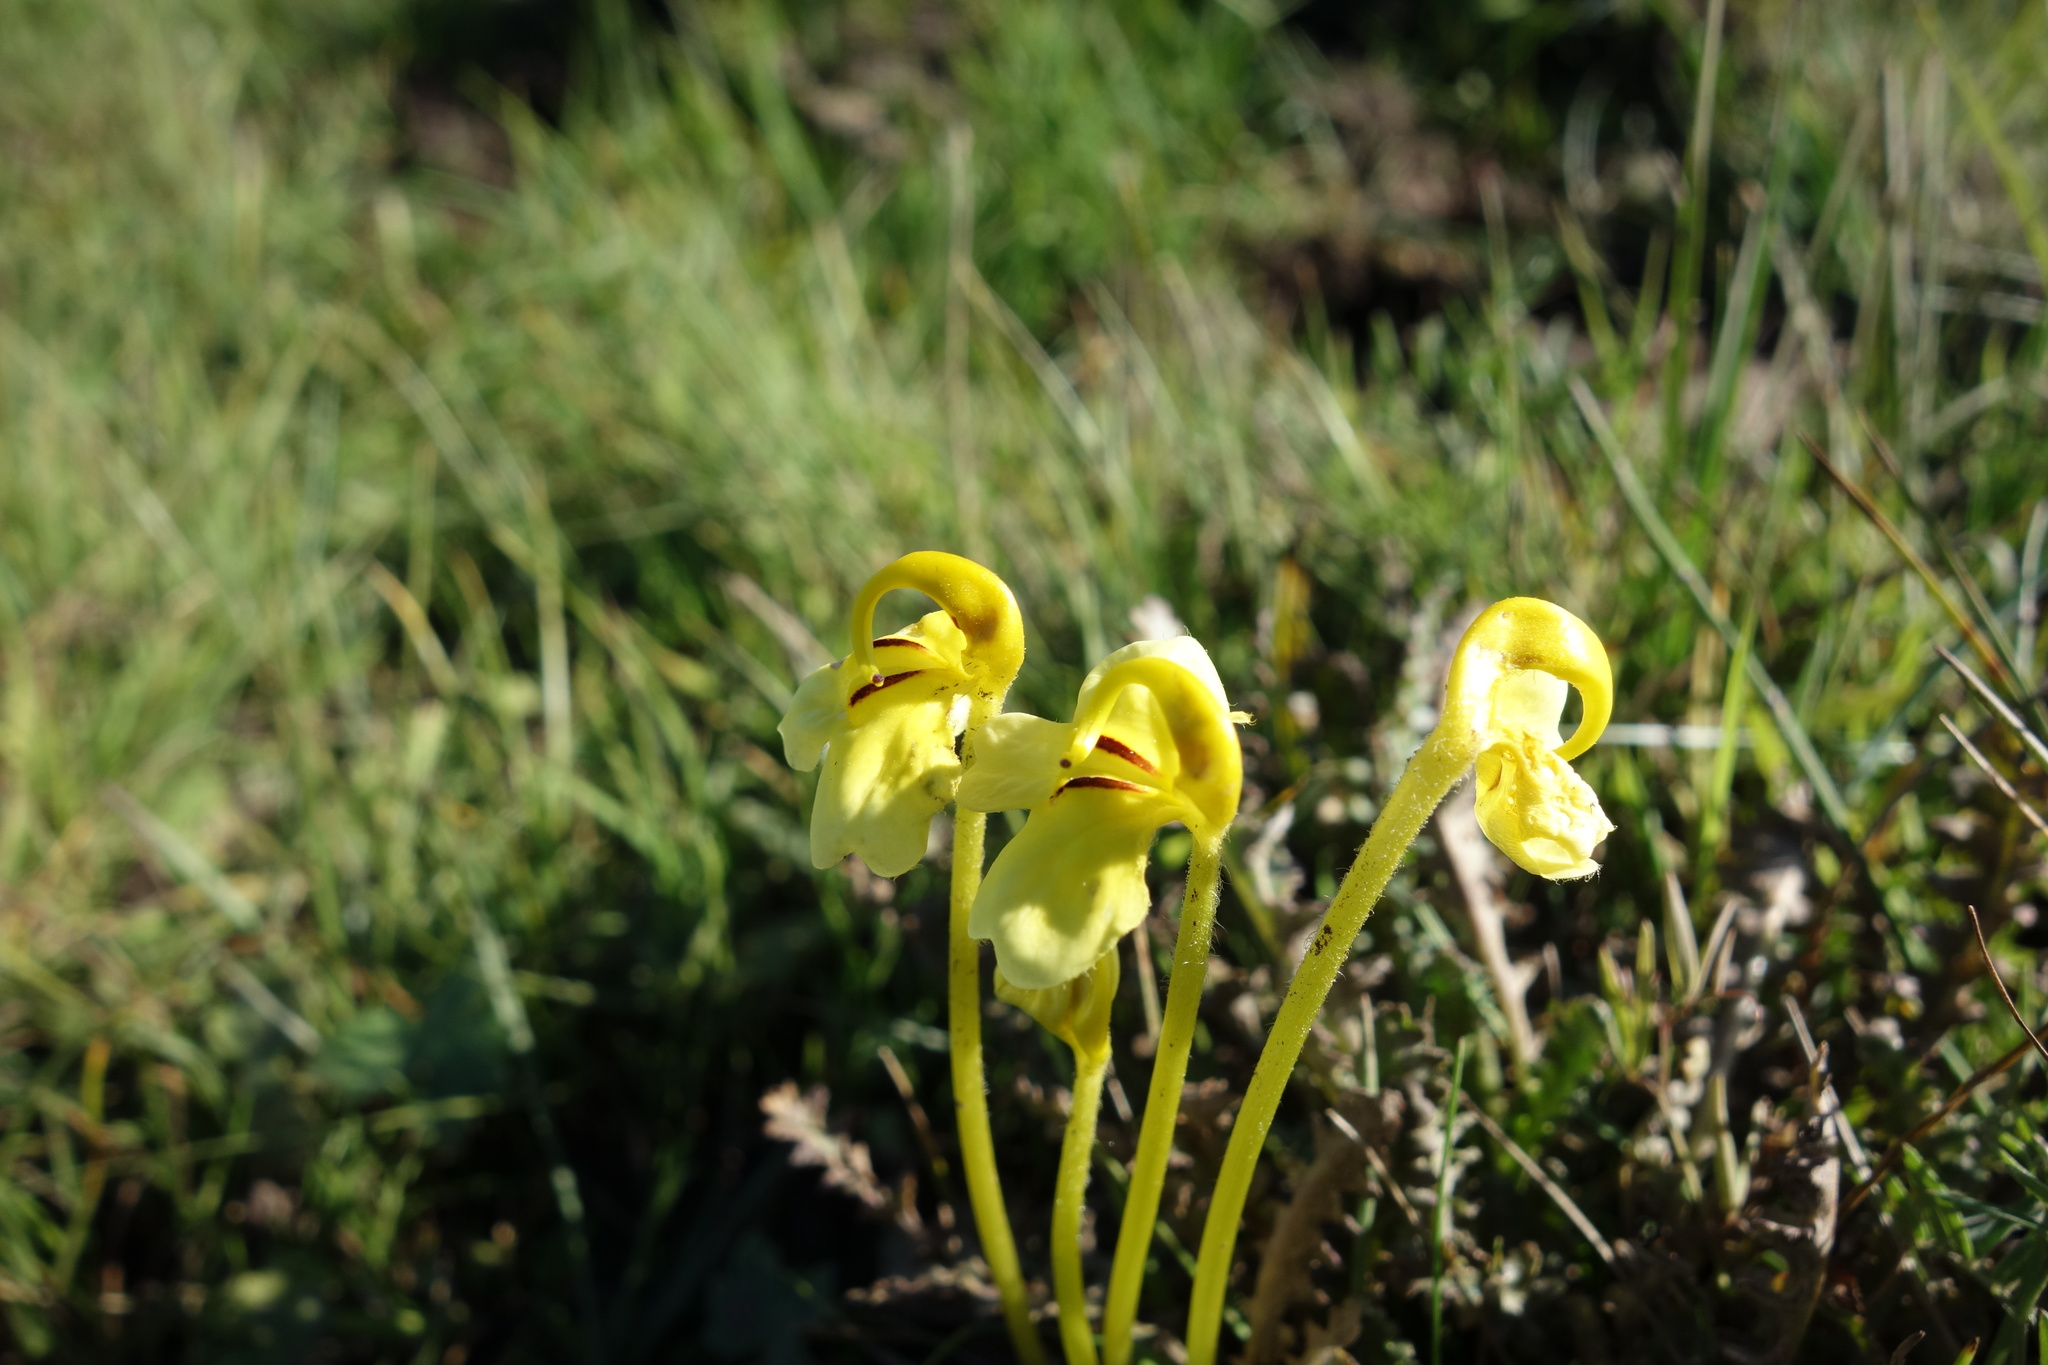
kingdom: Plantae
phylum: Tracheophyta
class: Magnoliopsida
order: Lamiales
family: Orobanchaceae
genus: Pedicularis
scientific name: Pedicularis longiflora
